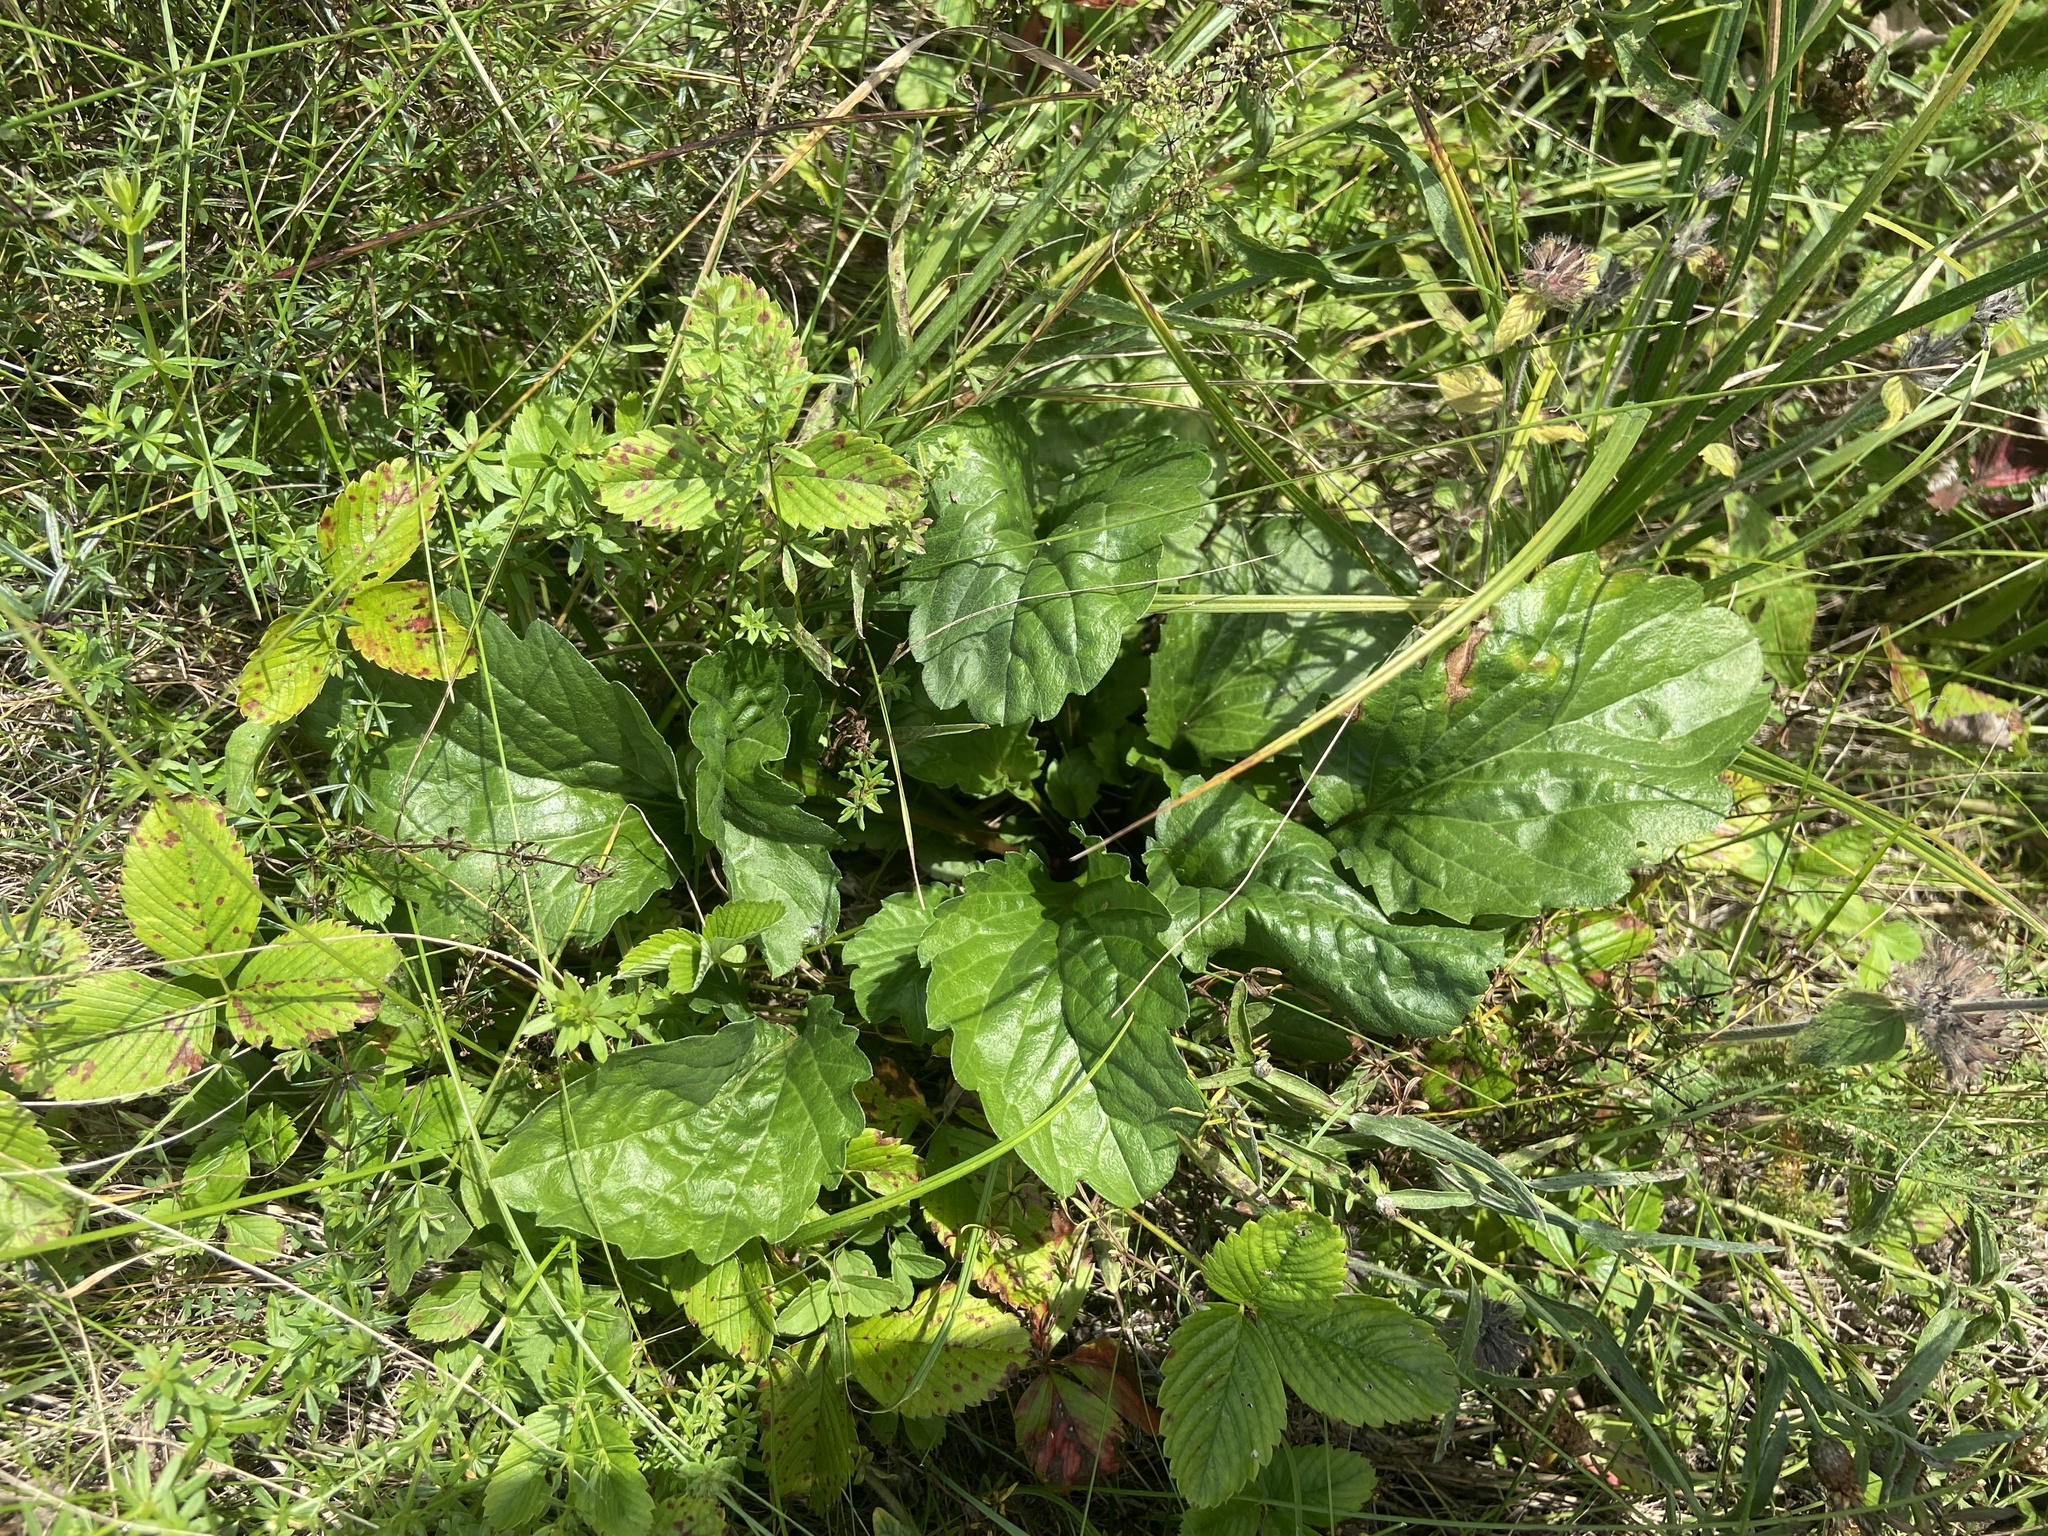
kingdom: Plantae
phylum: Tracheophyta
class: Magnoliopsida
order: Asterales
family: Asteraceae
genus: Erigeron
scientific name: Erigeron annuus
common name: Tall fleabane
